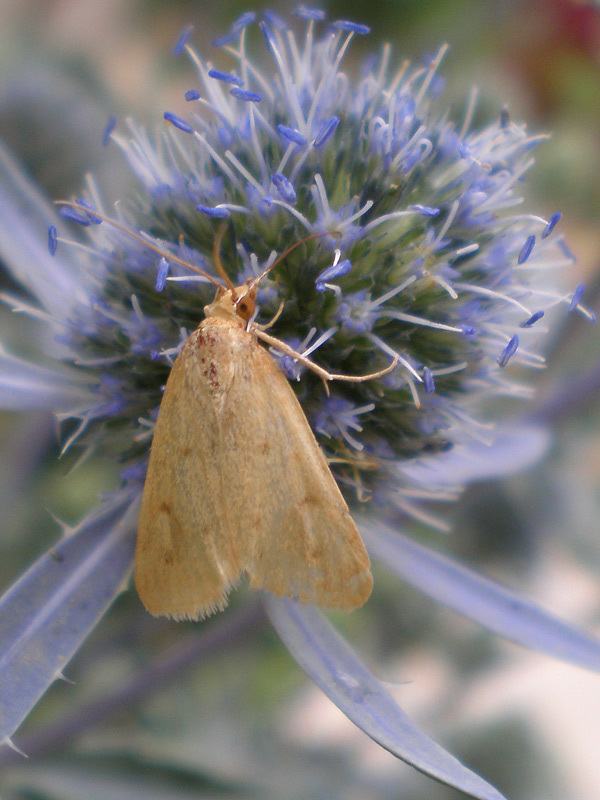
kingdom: Animalia
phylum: Arthropoda
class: Insecta
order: Lepidoptera
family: Crambidae
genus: Achyra
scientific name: Achyra nudalis
